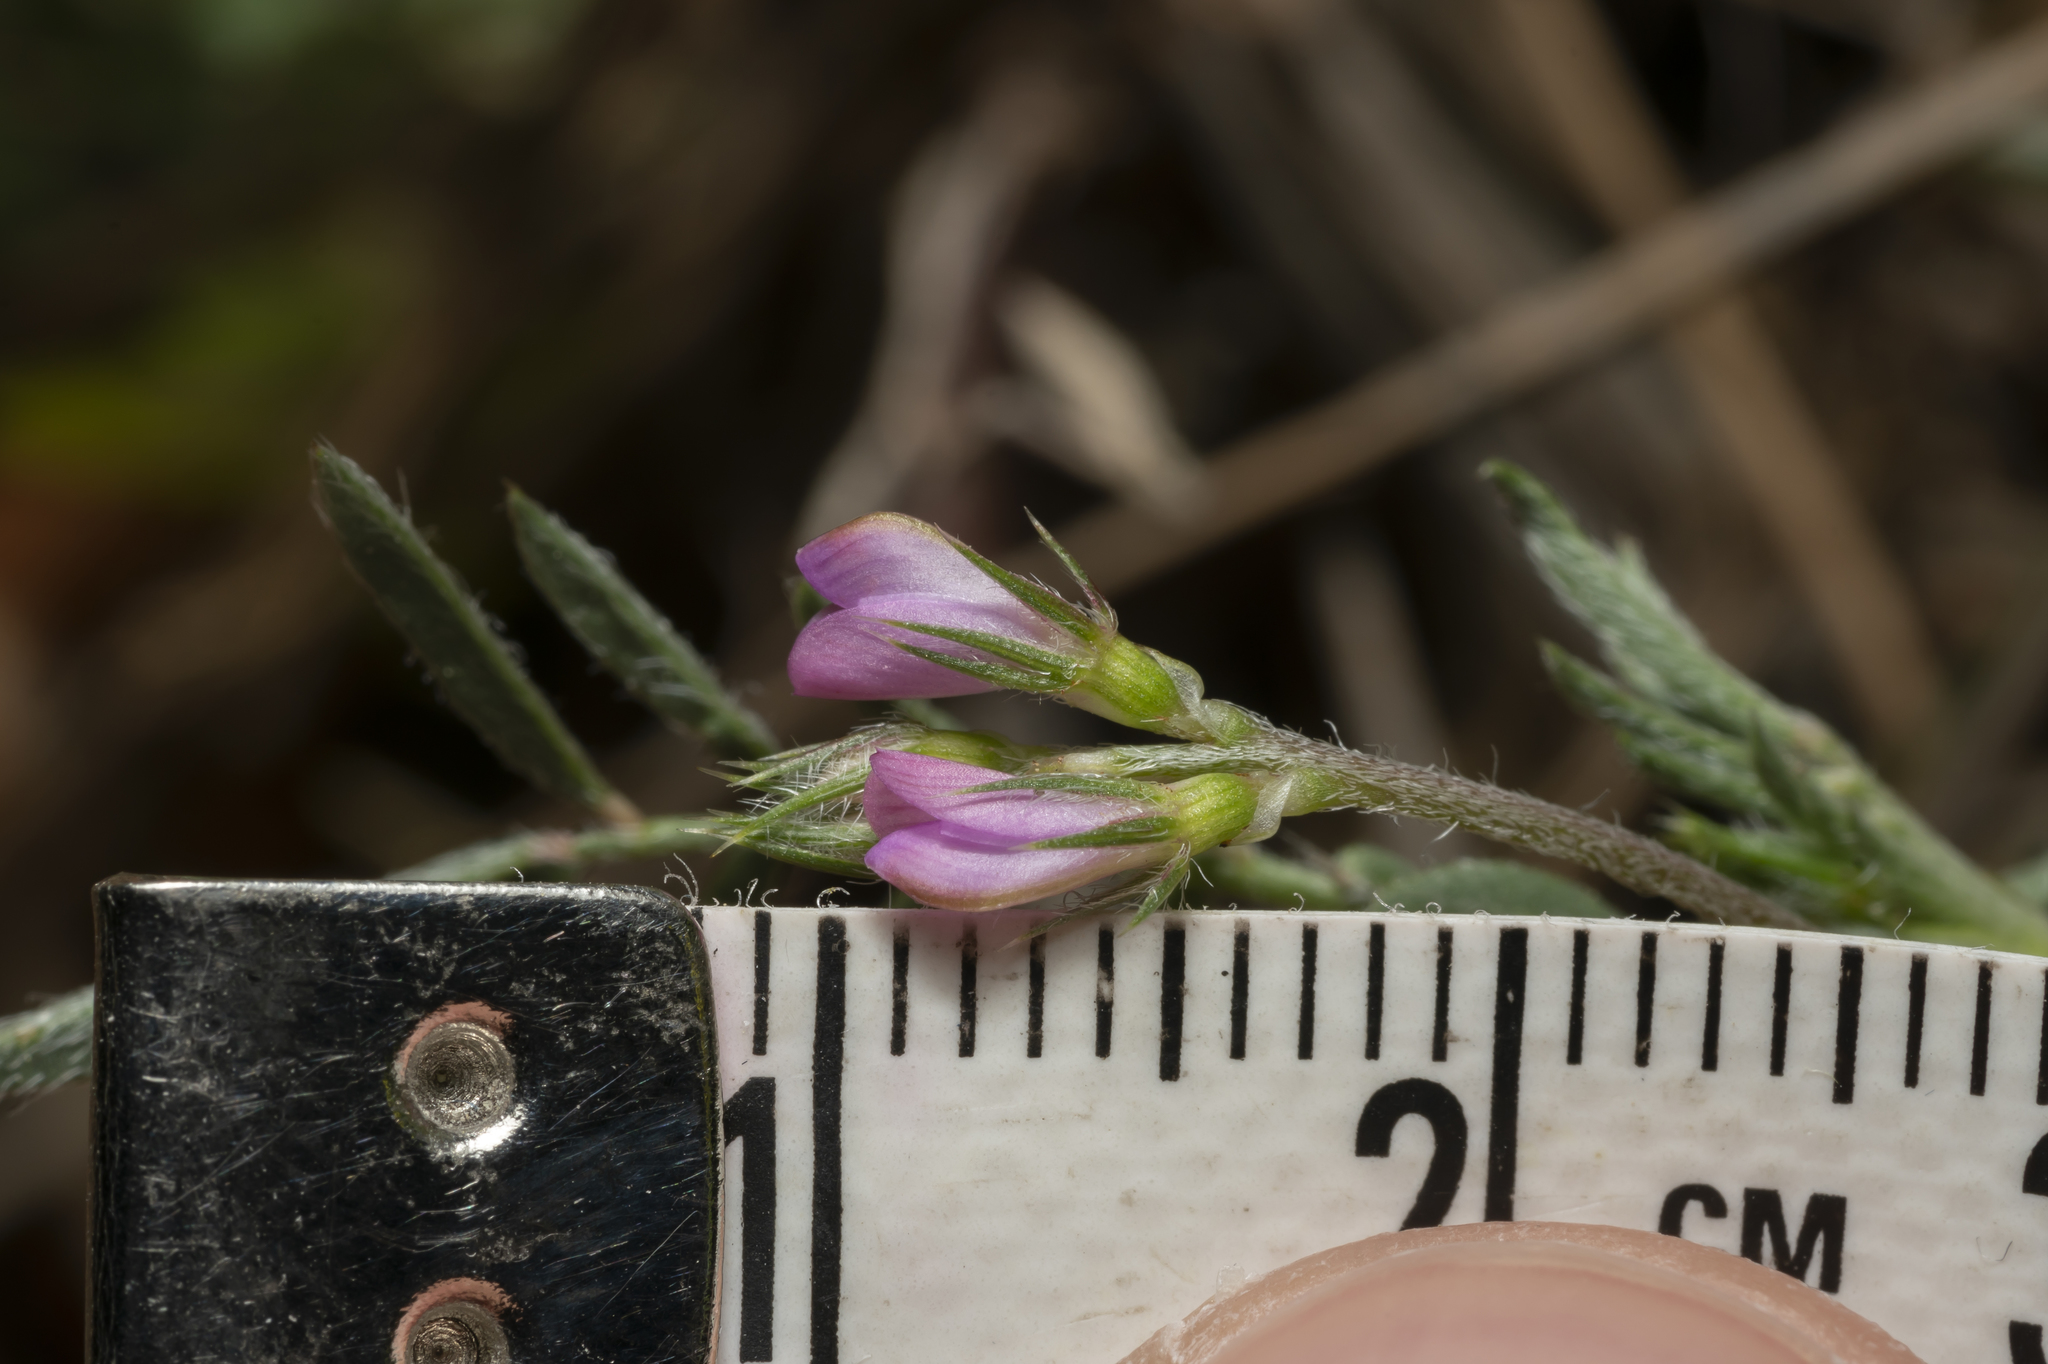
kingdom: Plantae
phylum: Tracheophyta
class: Magnoliopsida
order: Fabales
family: Fabaceae
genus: Onobrychis
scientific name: Onobrychis
